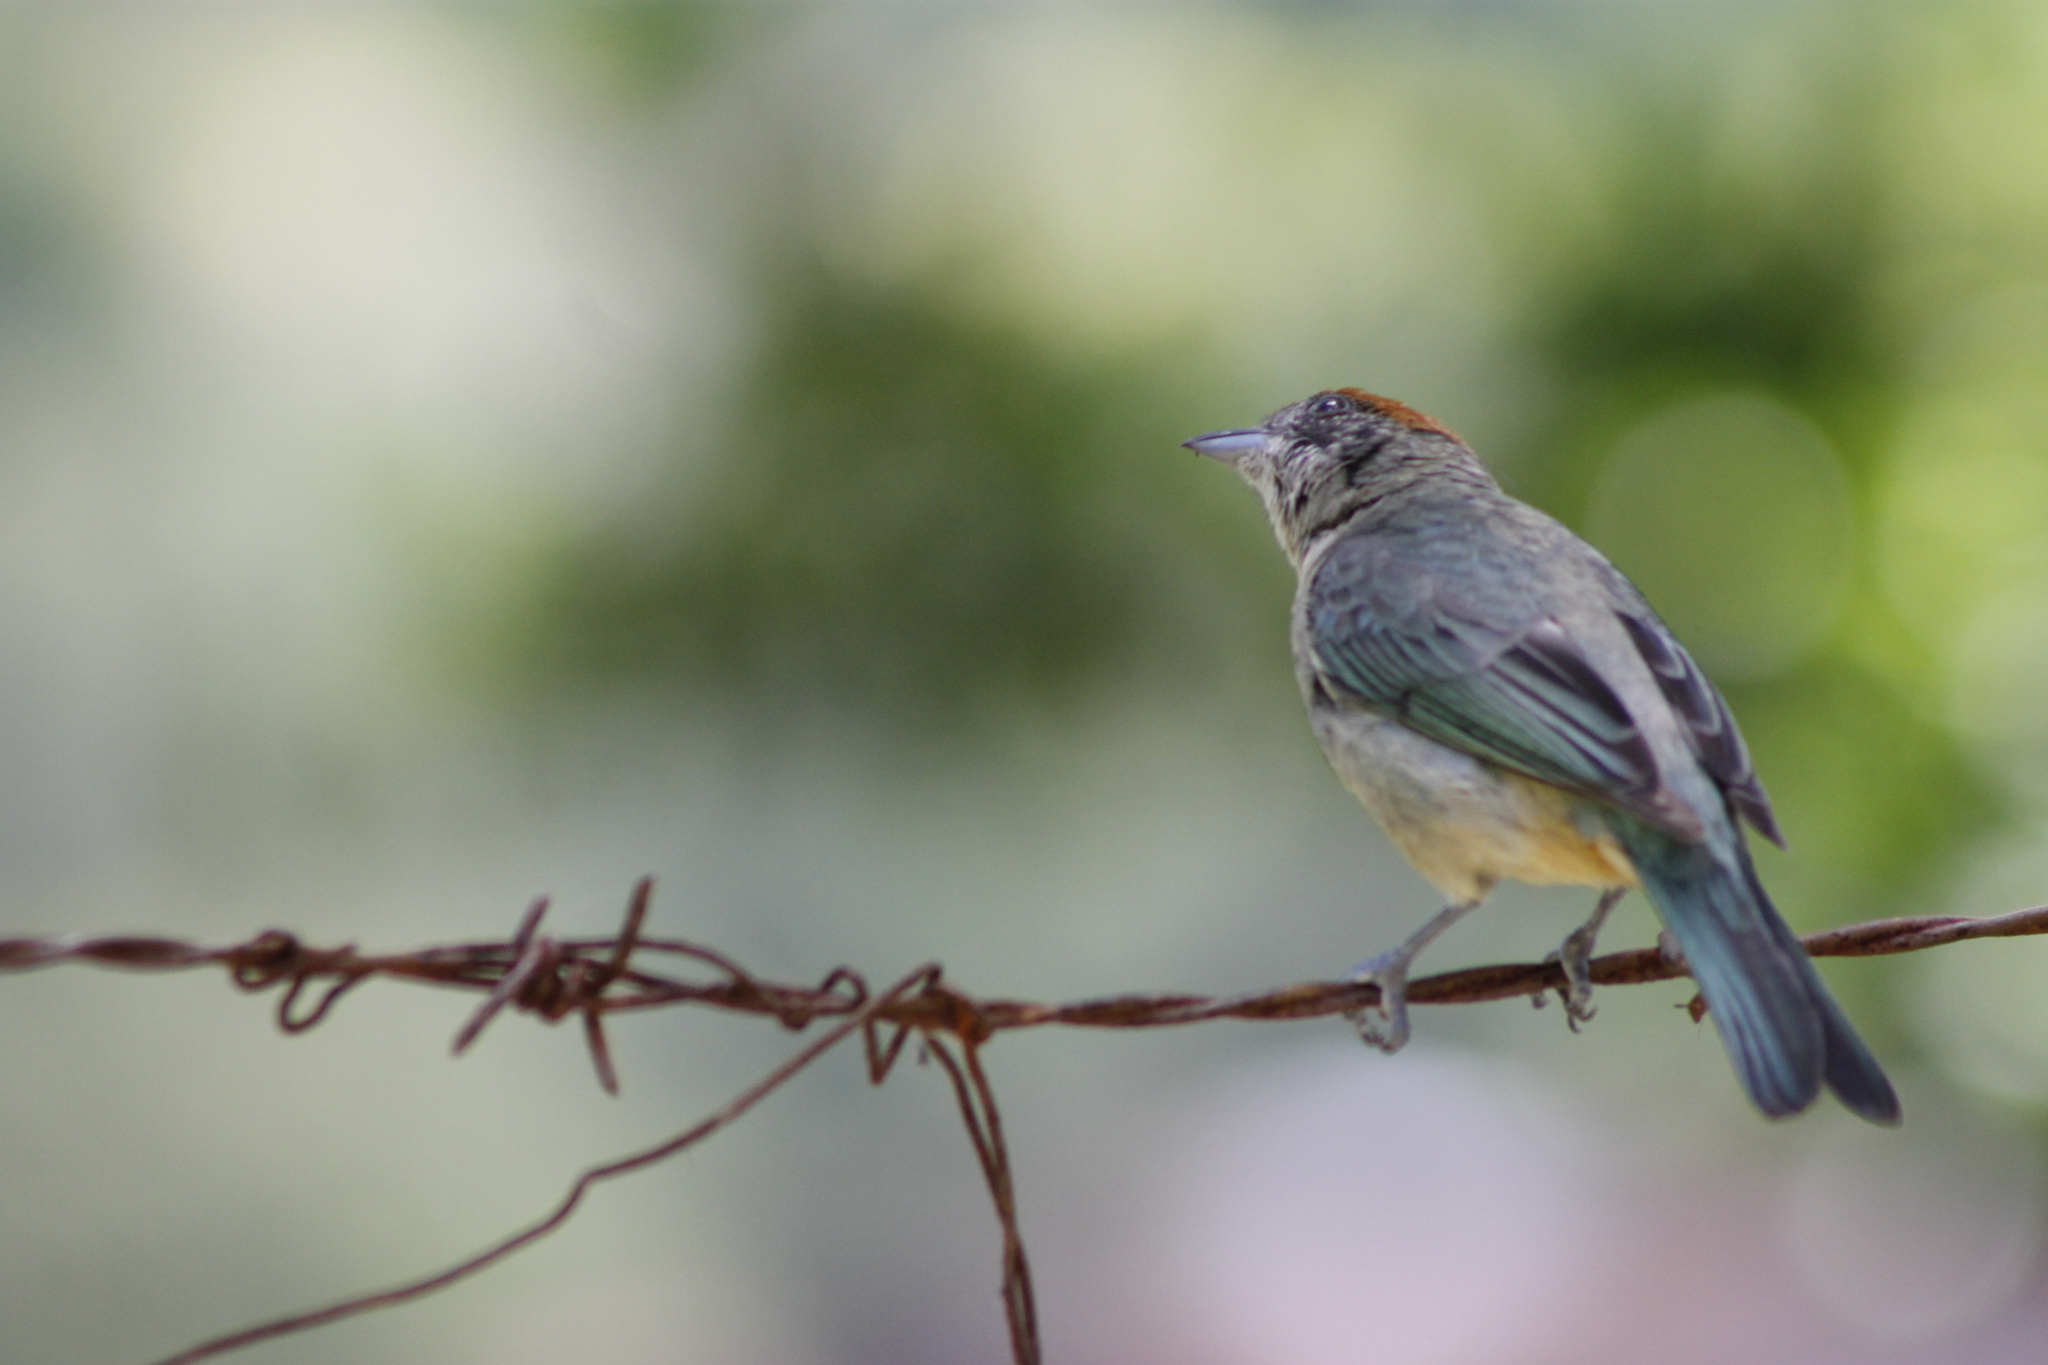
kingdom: Animalia
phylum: Chordata
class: Aves
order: Passeriformes
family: Thraupidae
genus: Stilpnia
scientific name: Stilpnia vitriolina
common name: Scrub tanager
